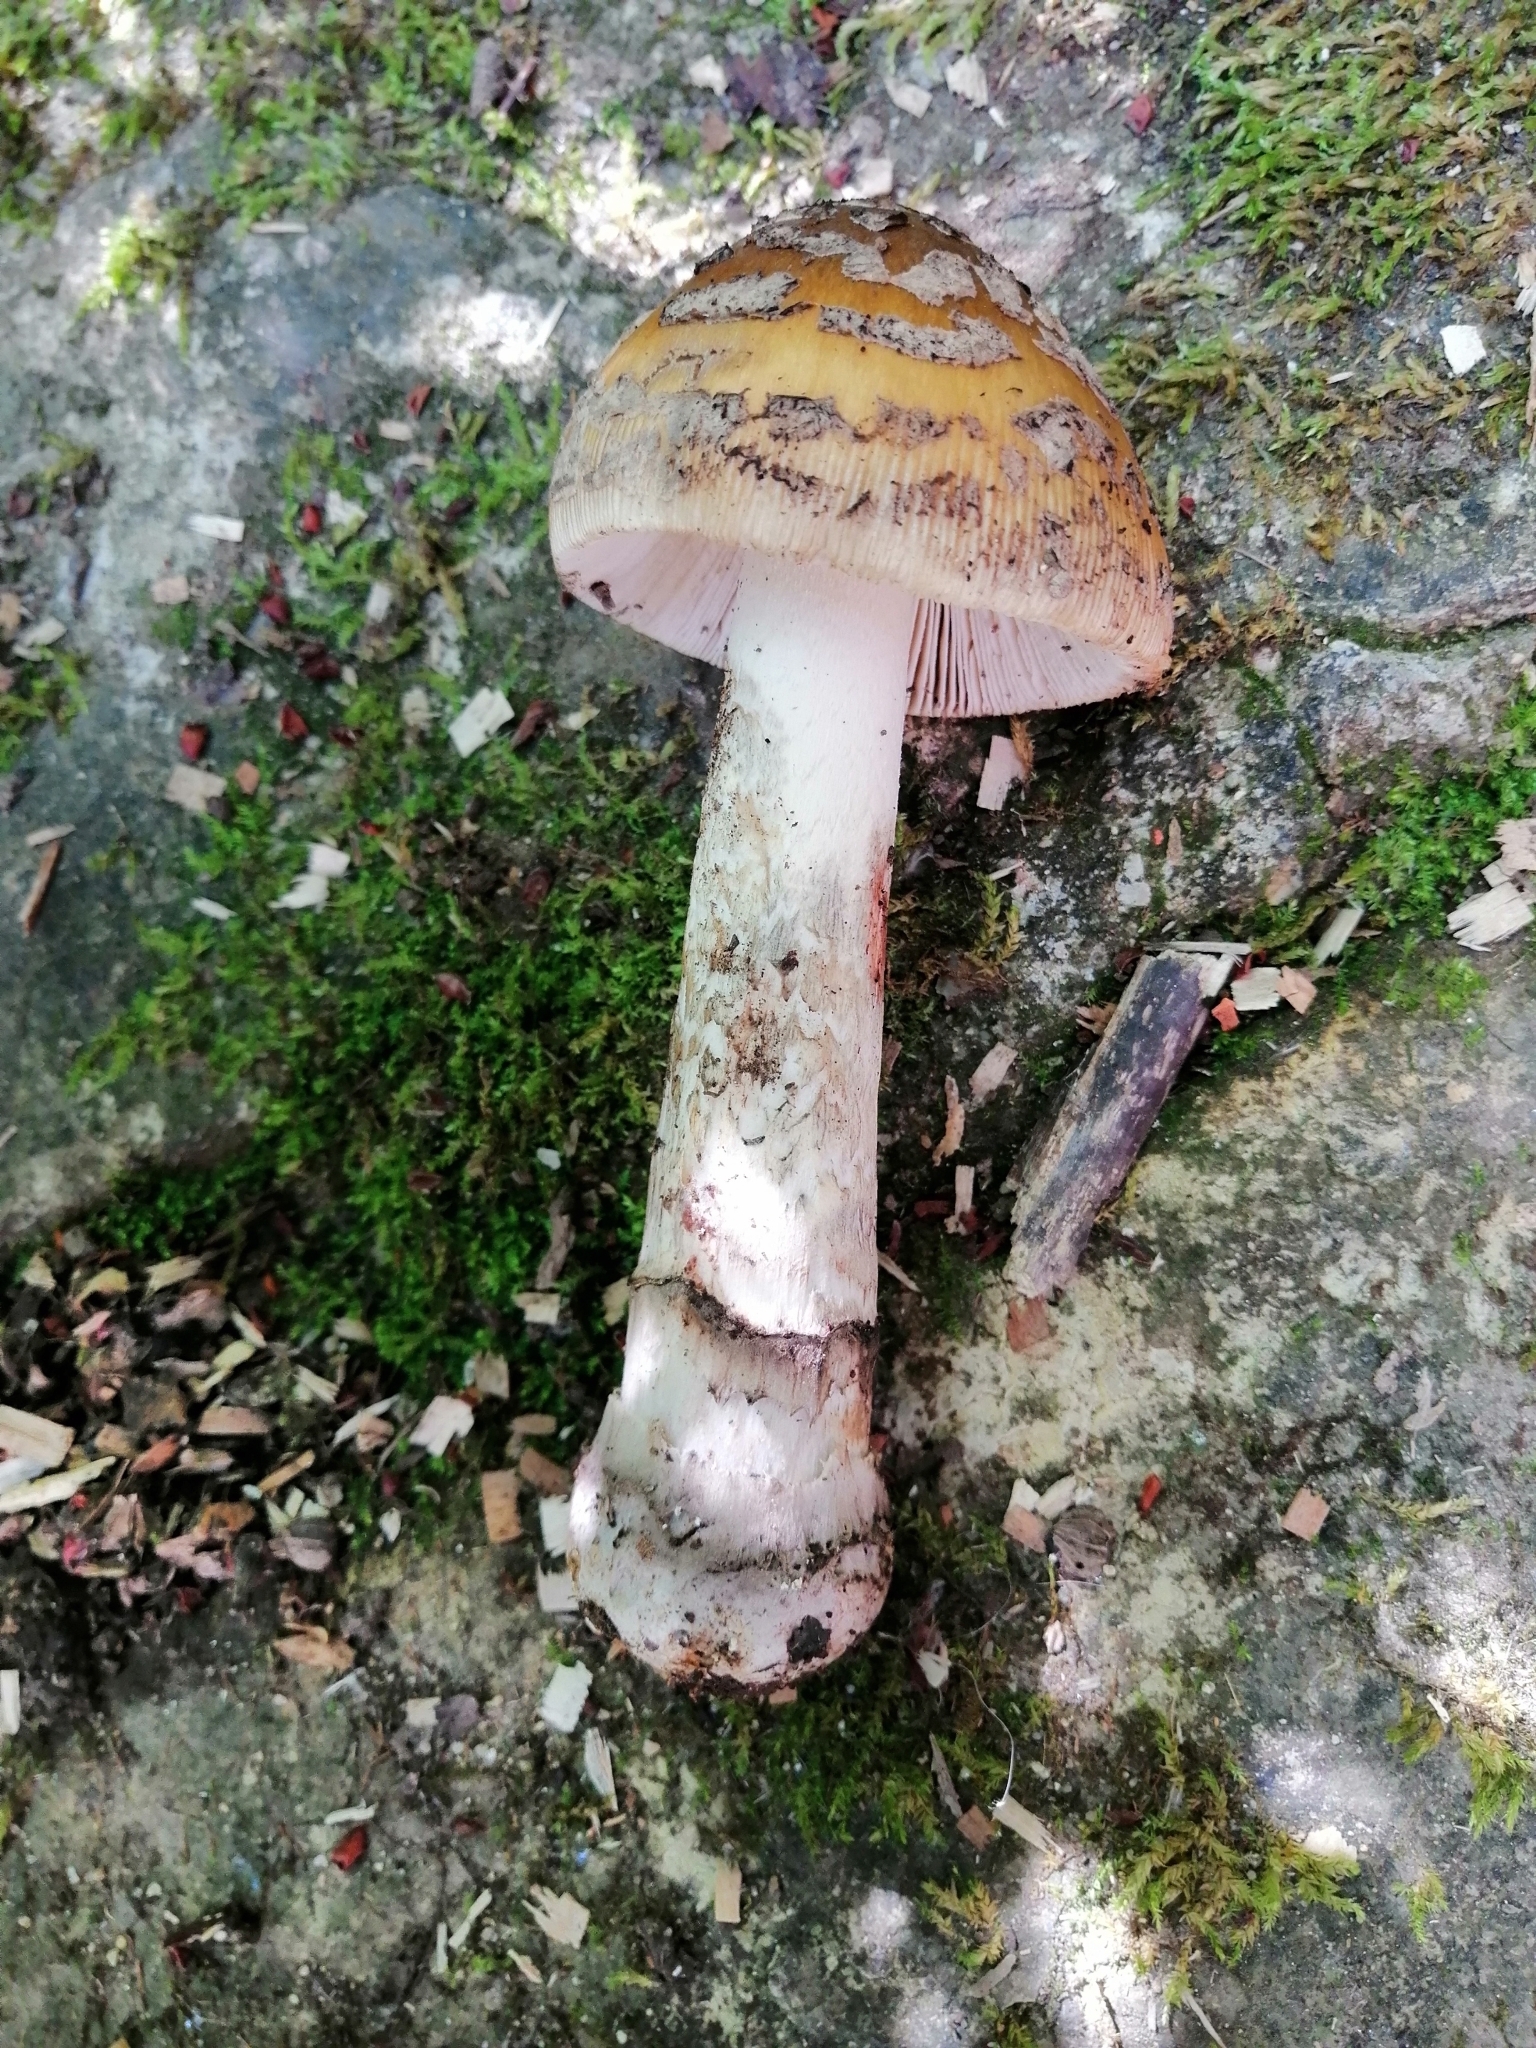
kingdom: Fungi
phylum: Basidiomycota
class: Agaricomycetes
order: Agaricales
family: Amanitaceae
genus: Amanita
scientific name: Amanita ceciliae
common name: Snakeskin grisette
